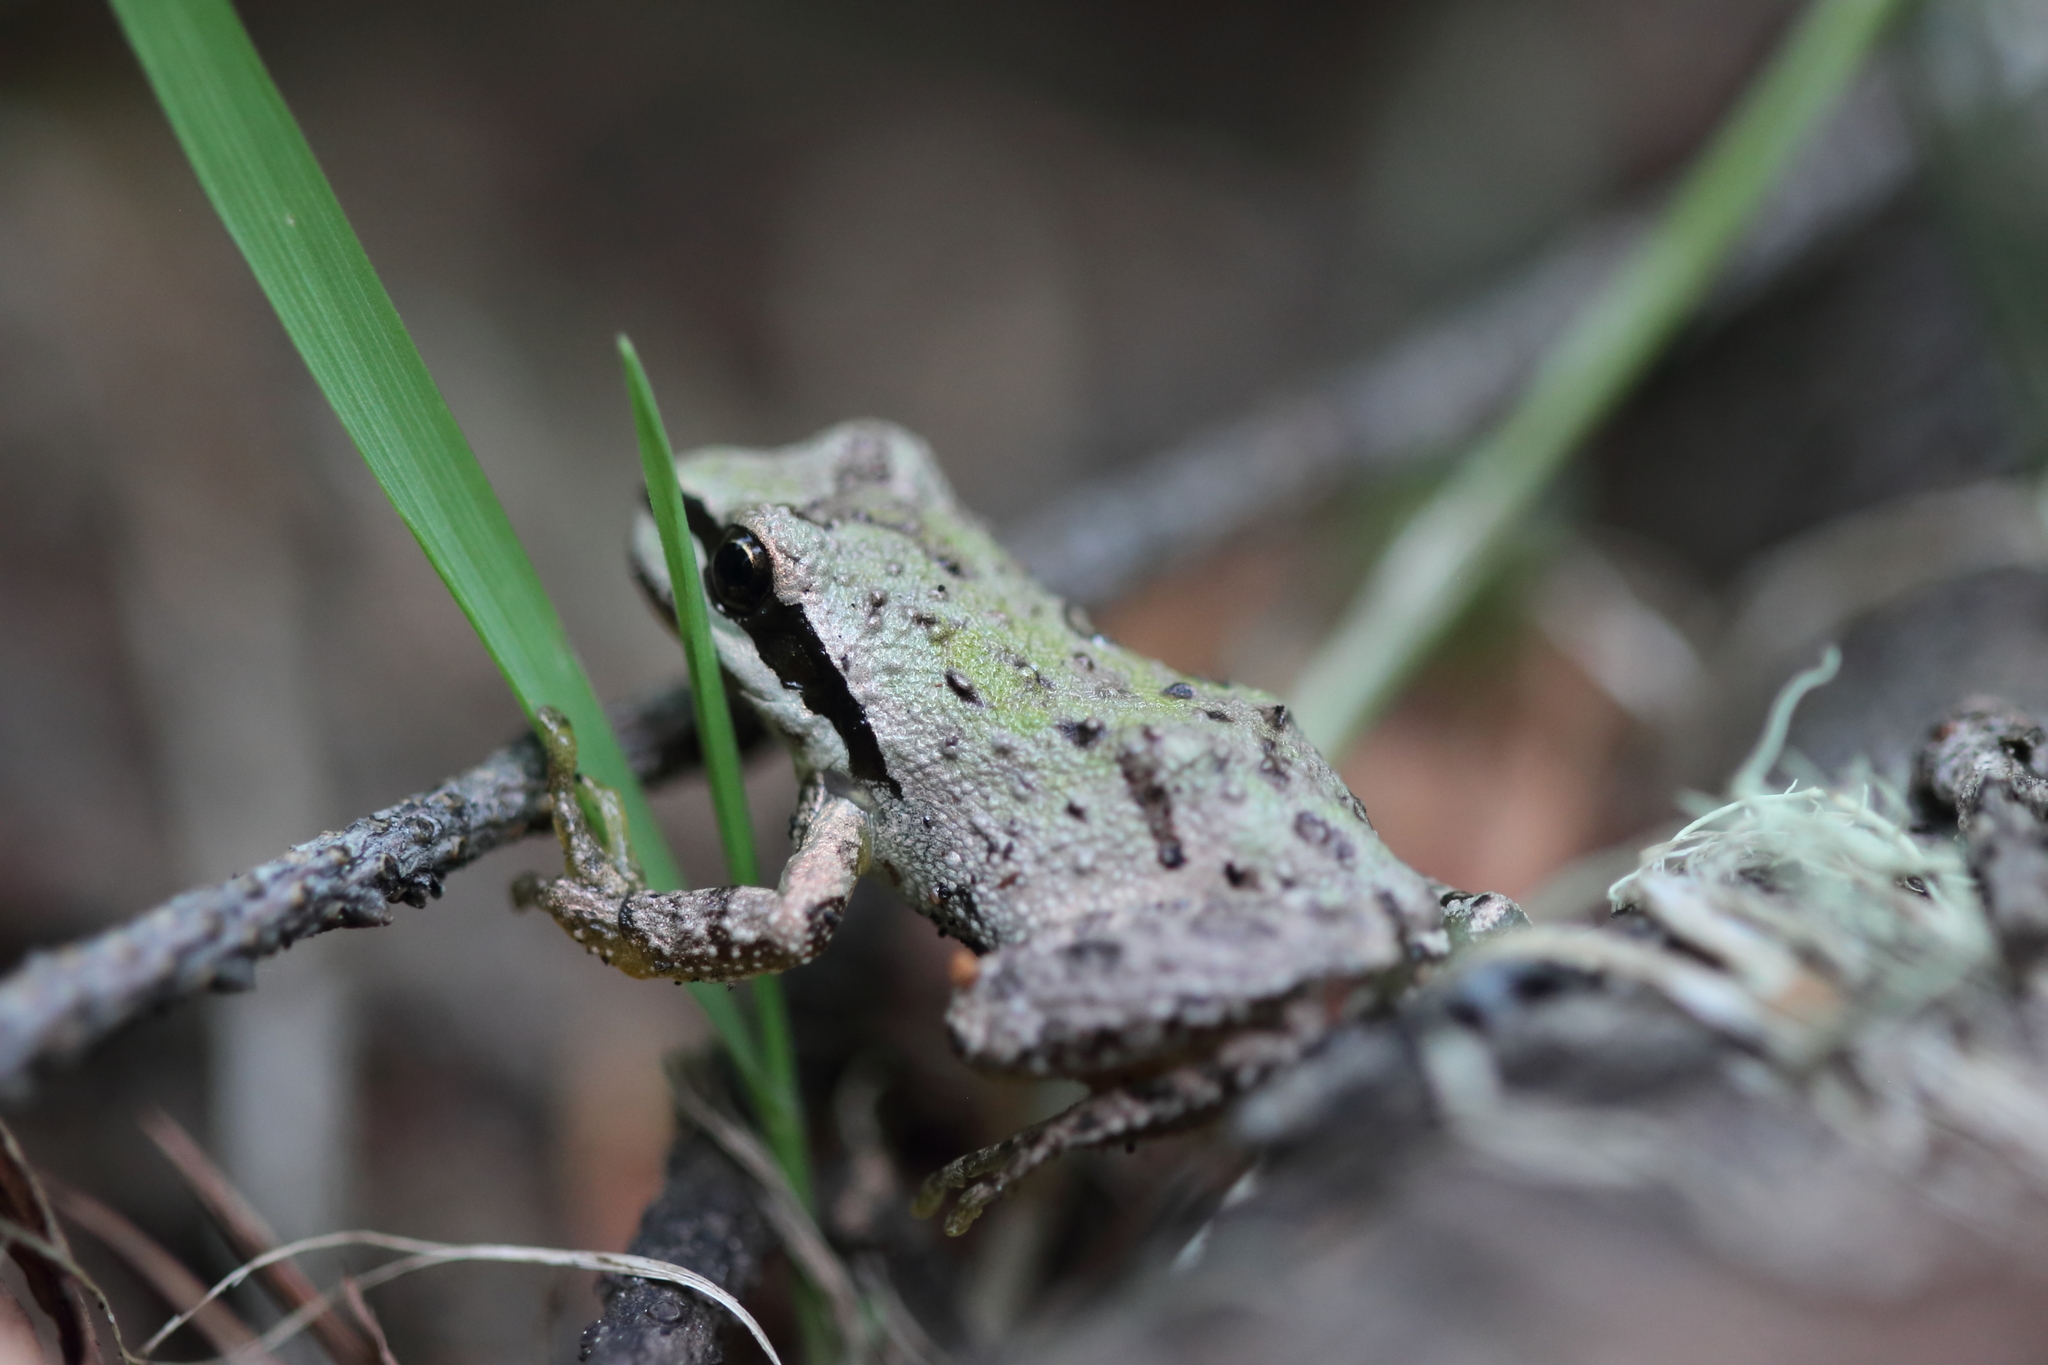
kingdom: Animalia
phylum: Chordata
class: Amphibia
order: Anura
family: Hylidae
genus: Pseudacris
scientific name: Pseudacris regilla
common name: Pacific chorus frog
